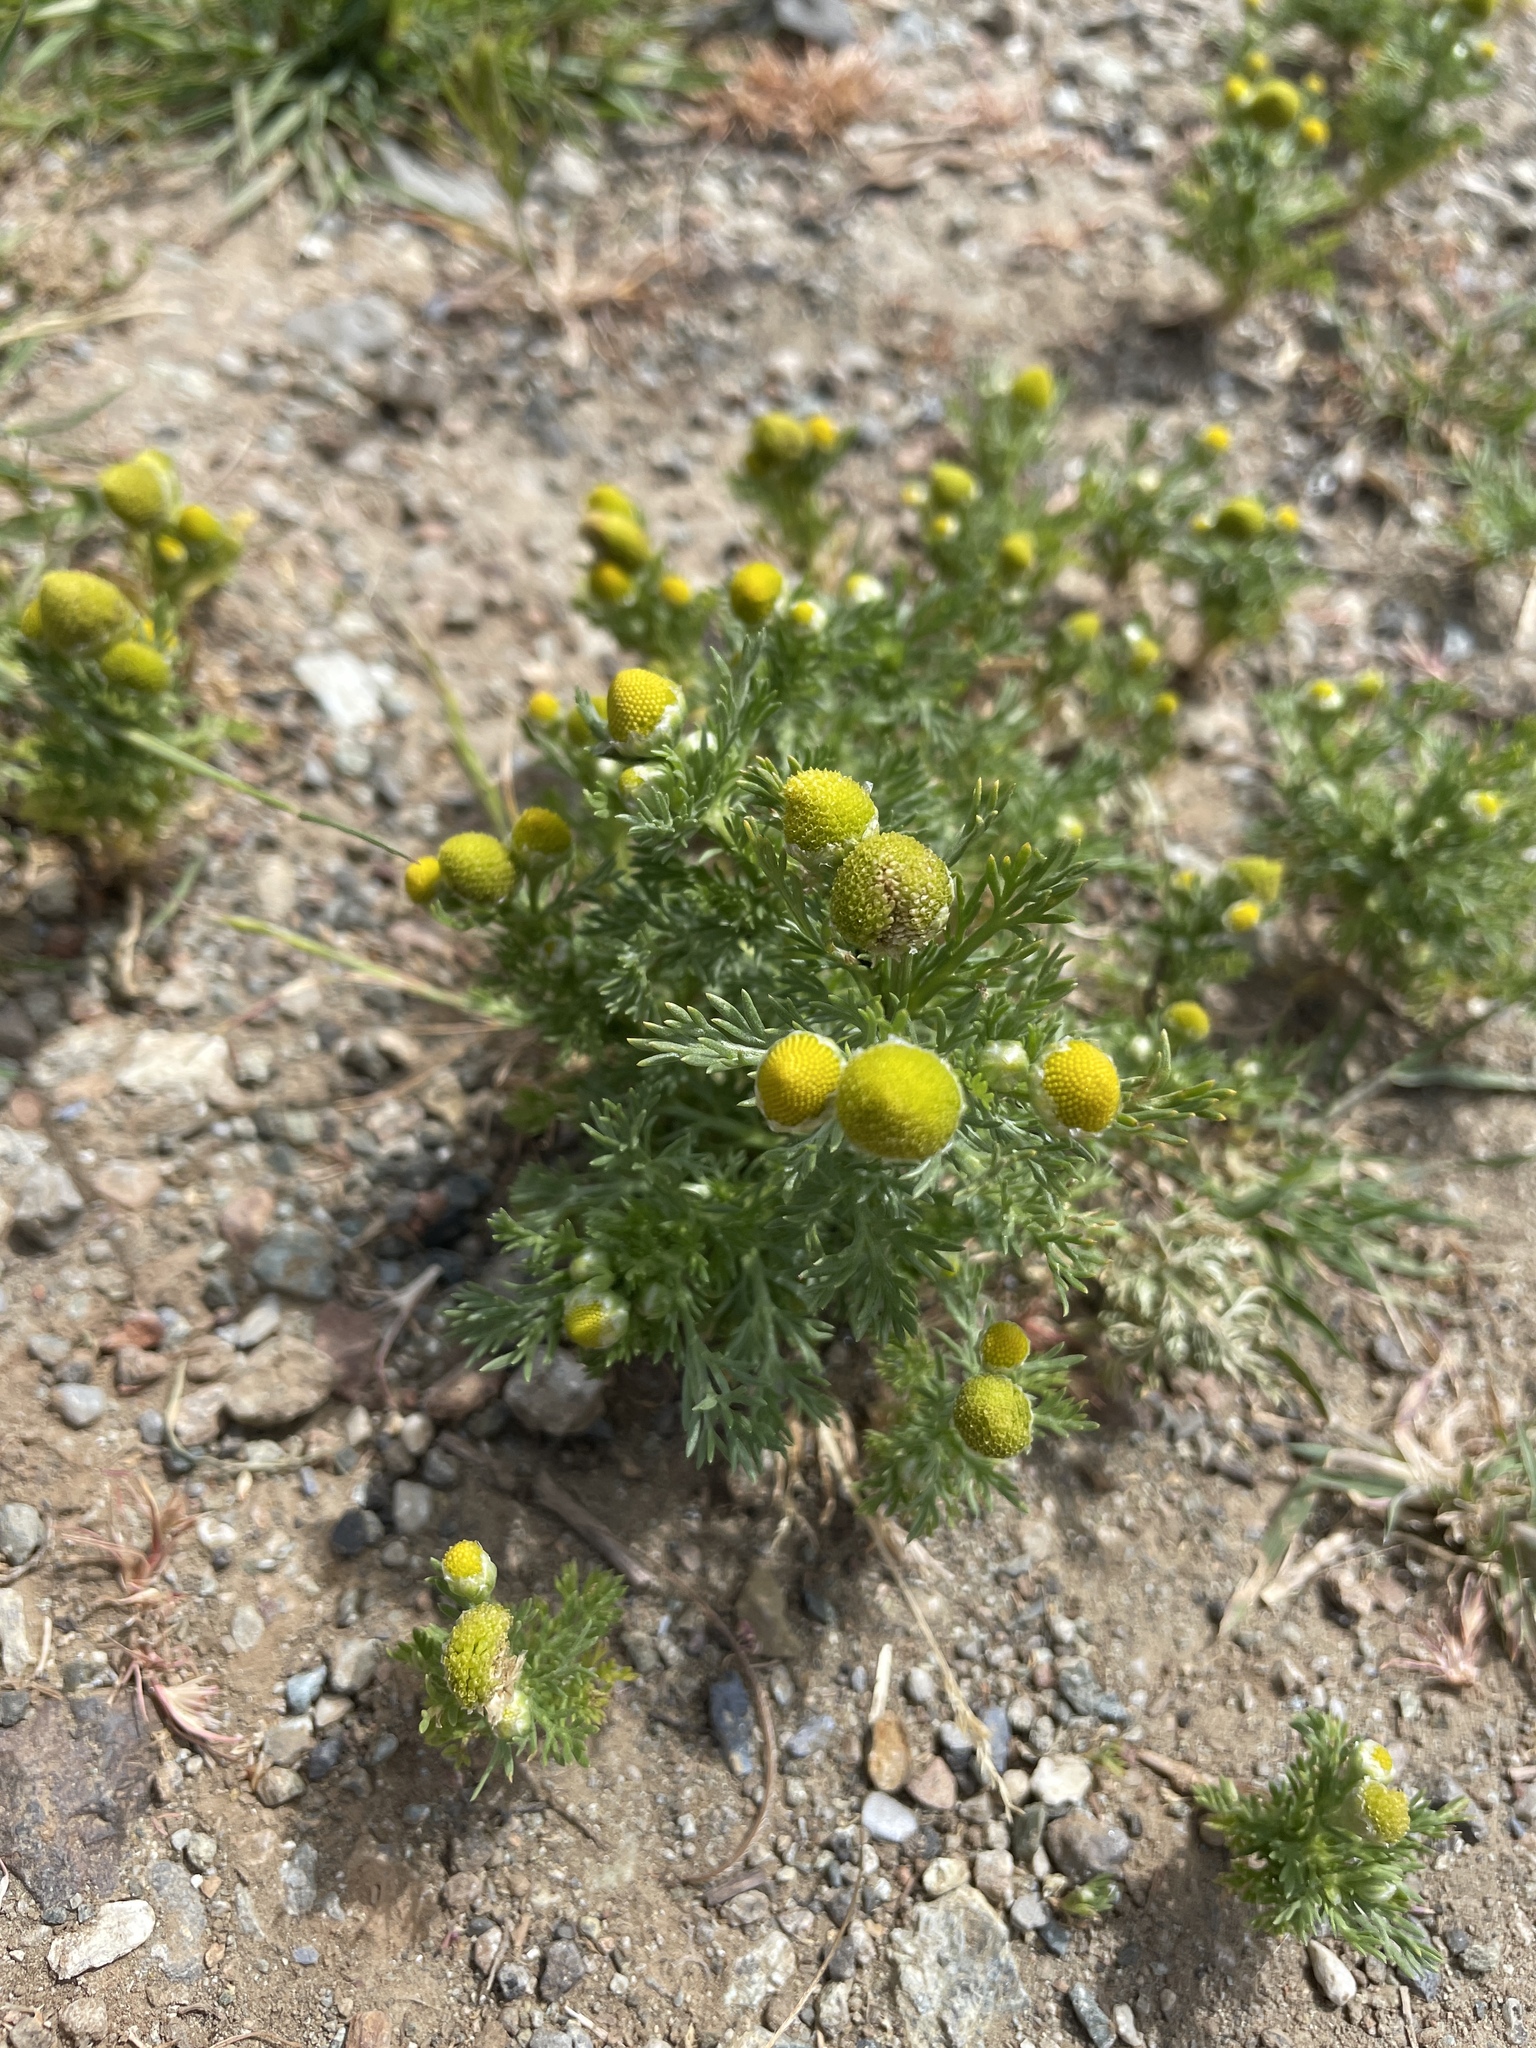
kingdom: Plantae
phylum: Tracheophyta
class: Magnoliopsida
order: Asterales
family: Asteraceae
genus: Matricaria
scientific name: Matricaria discoidea
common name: Disc mayweed
